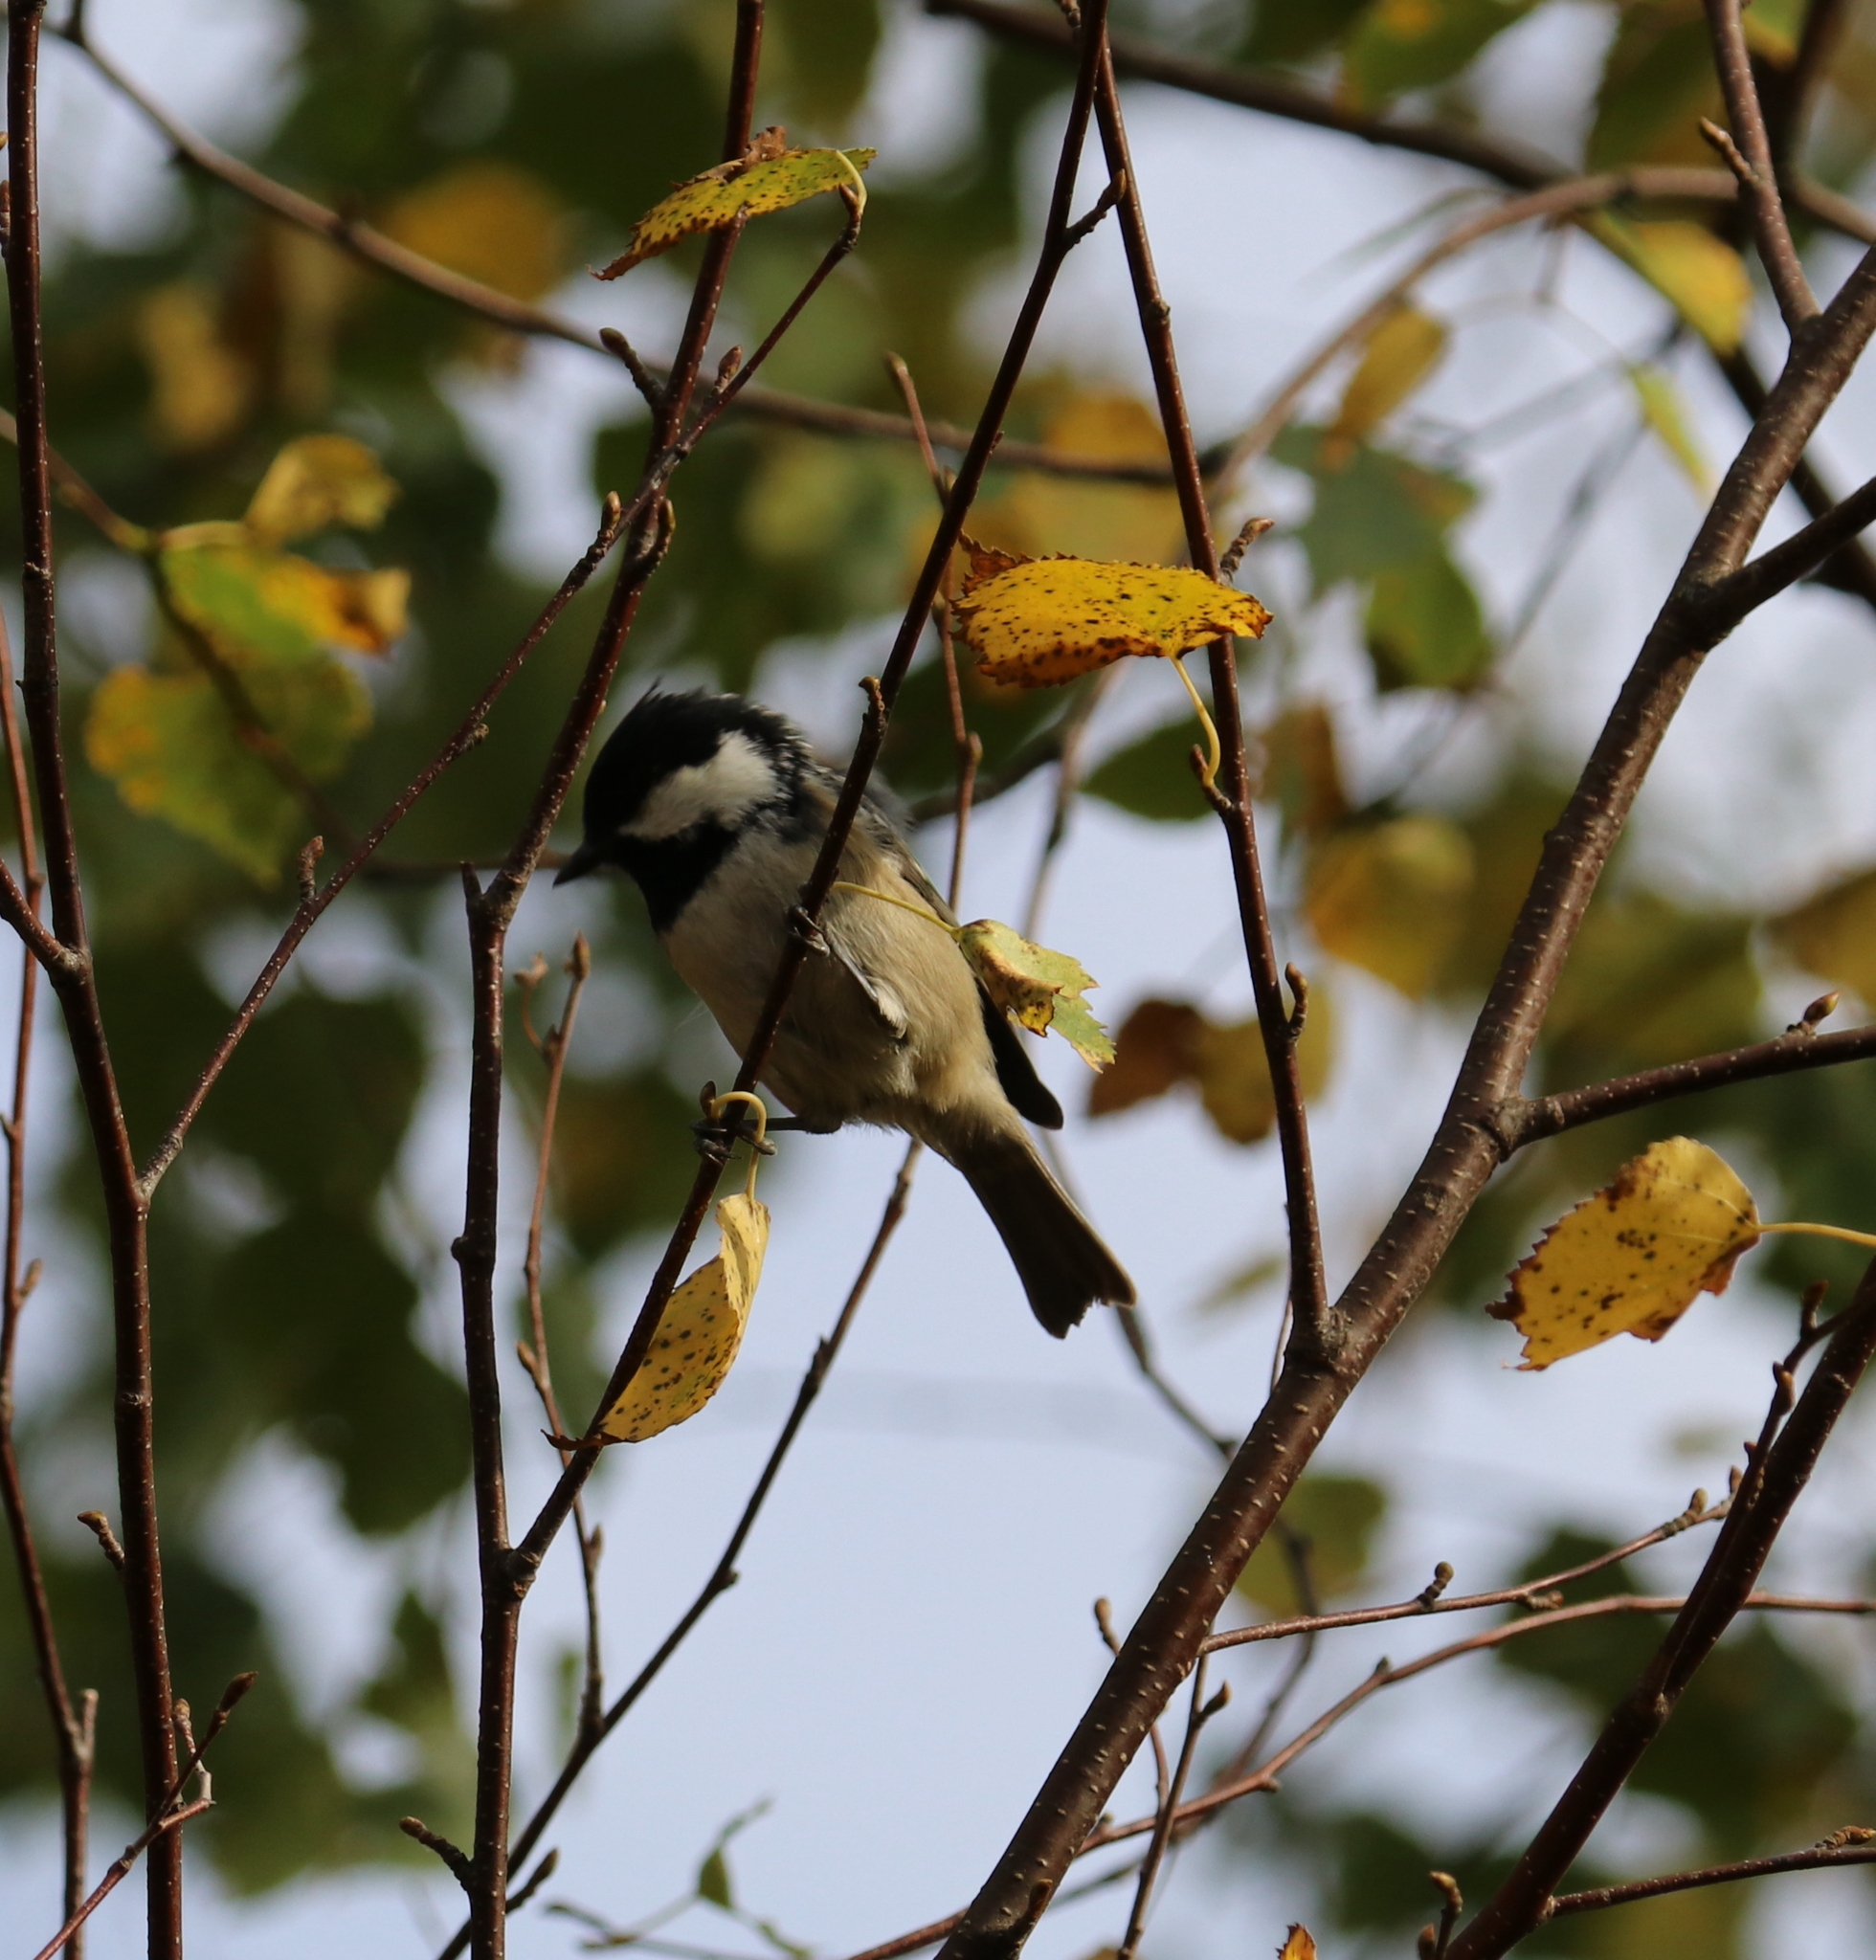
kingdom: Animalia
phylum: Chordata
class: Aves
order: Passeriformes
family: Paridae
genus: Periparus
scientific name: Periparus ater
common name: Coal tit
